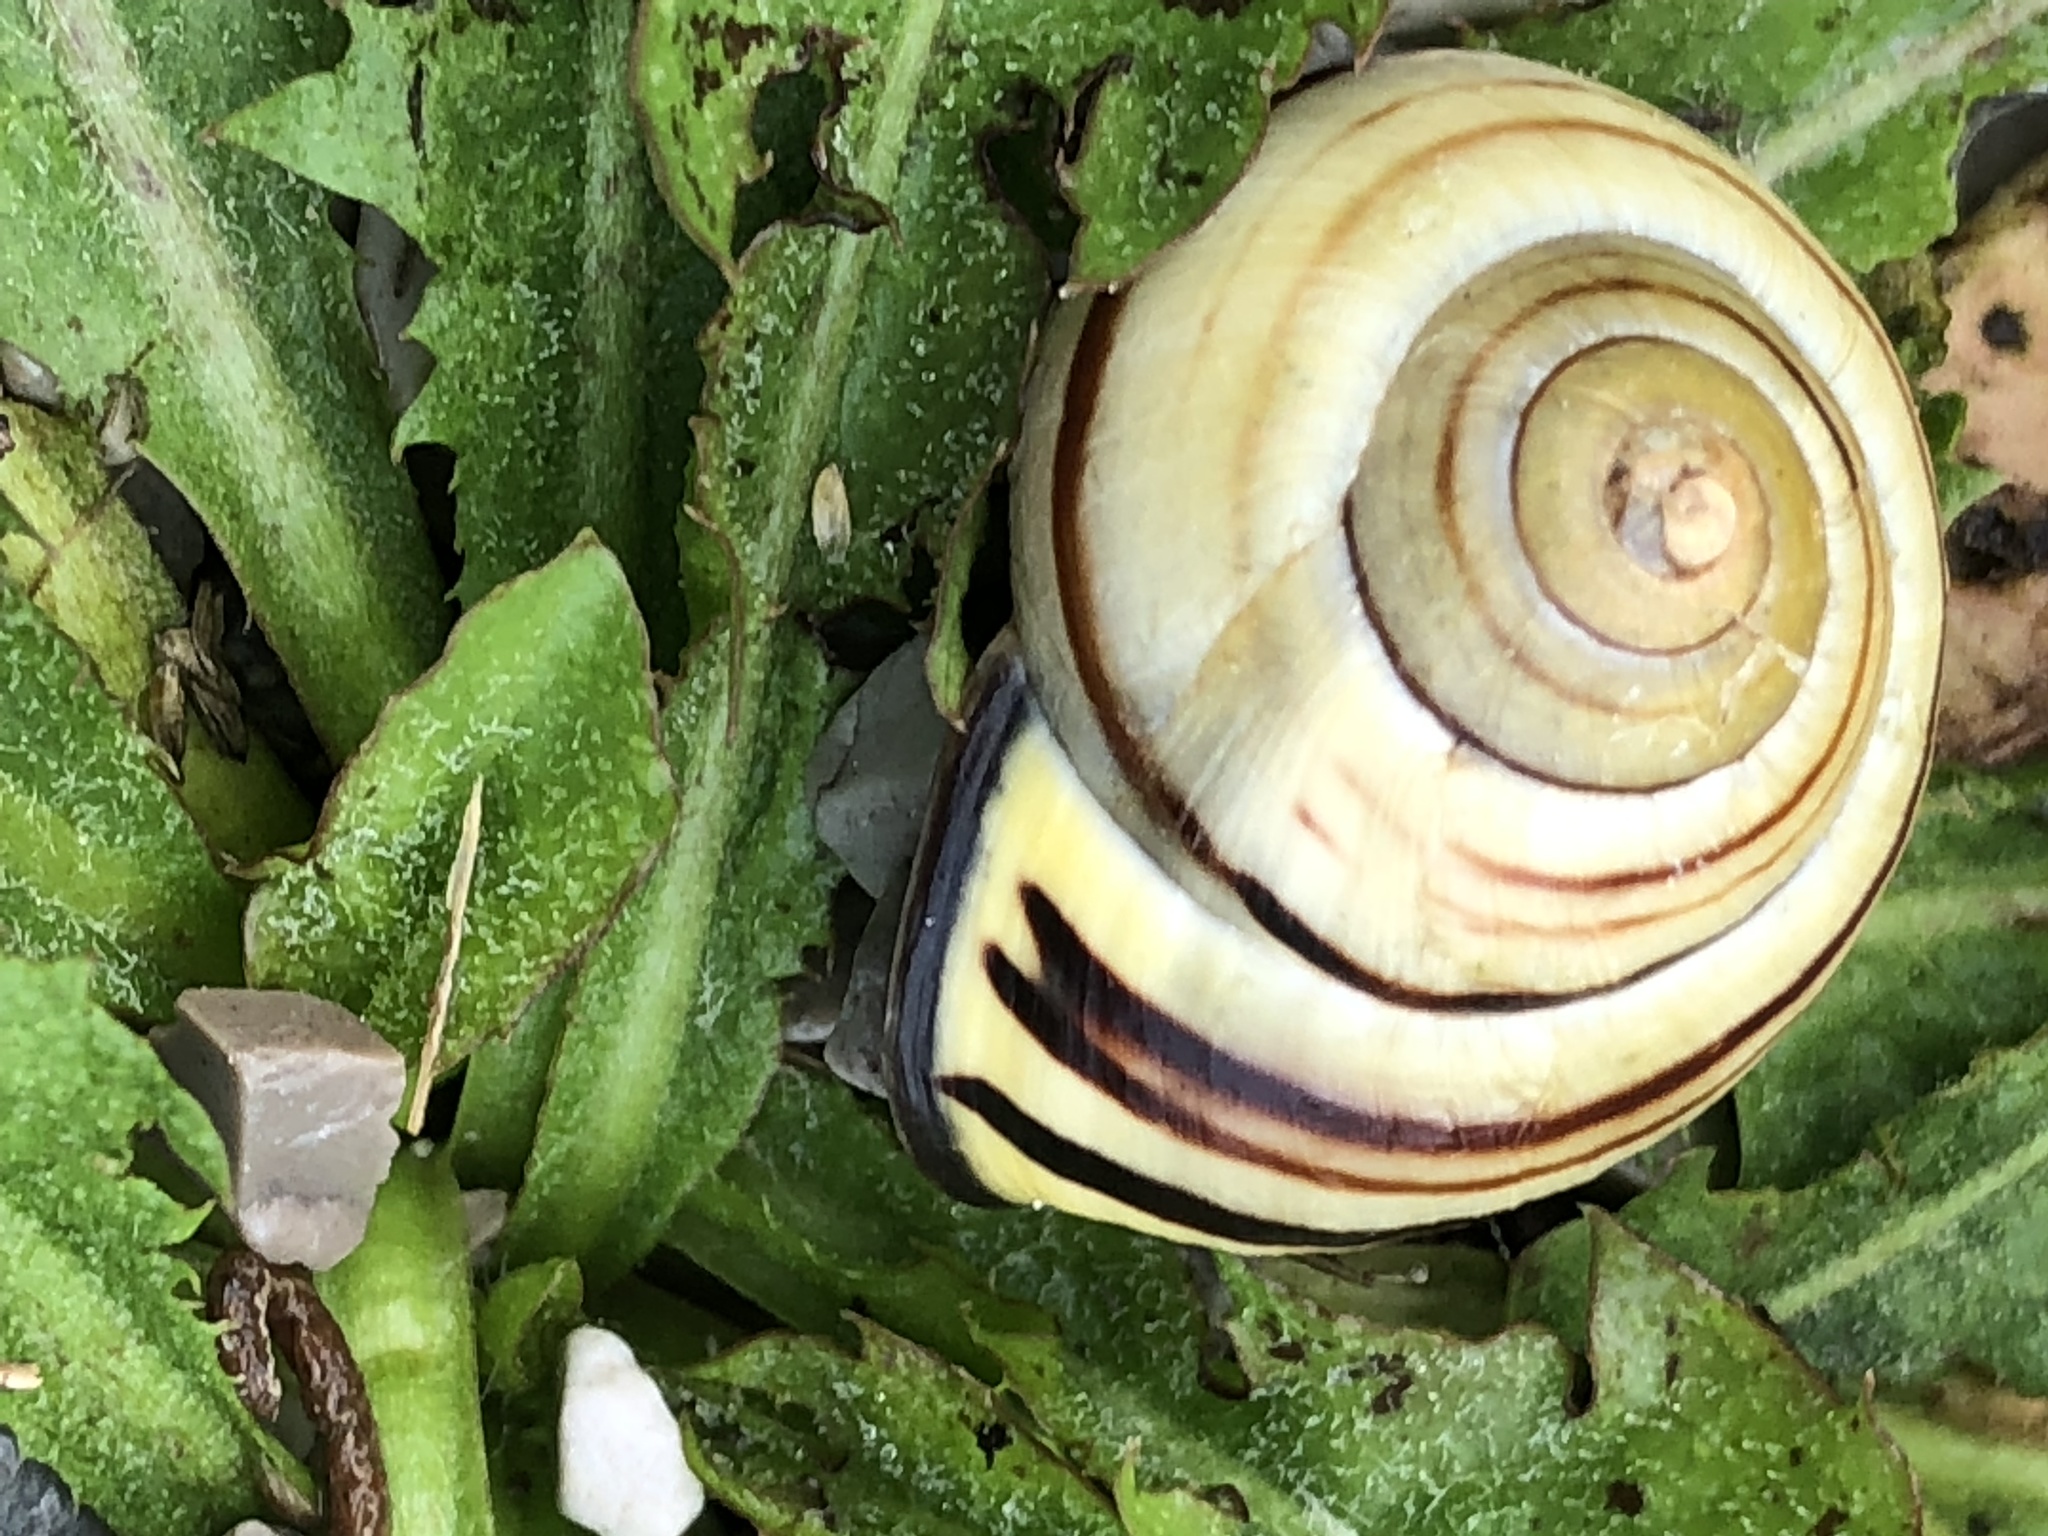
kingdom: Animalia
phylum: Mollusca
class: Gastropoda
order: Stylommatophora
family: Helicidae
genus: Cepaea
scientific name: Cepaea nemoralis
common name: Grovesnail
